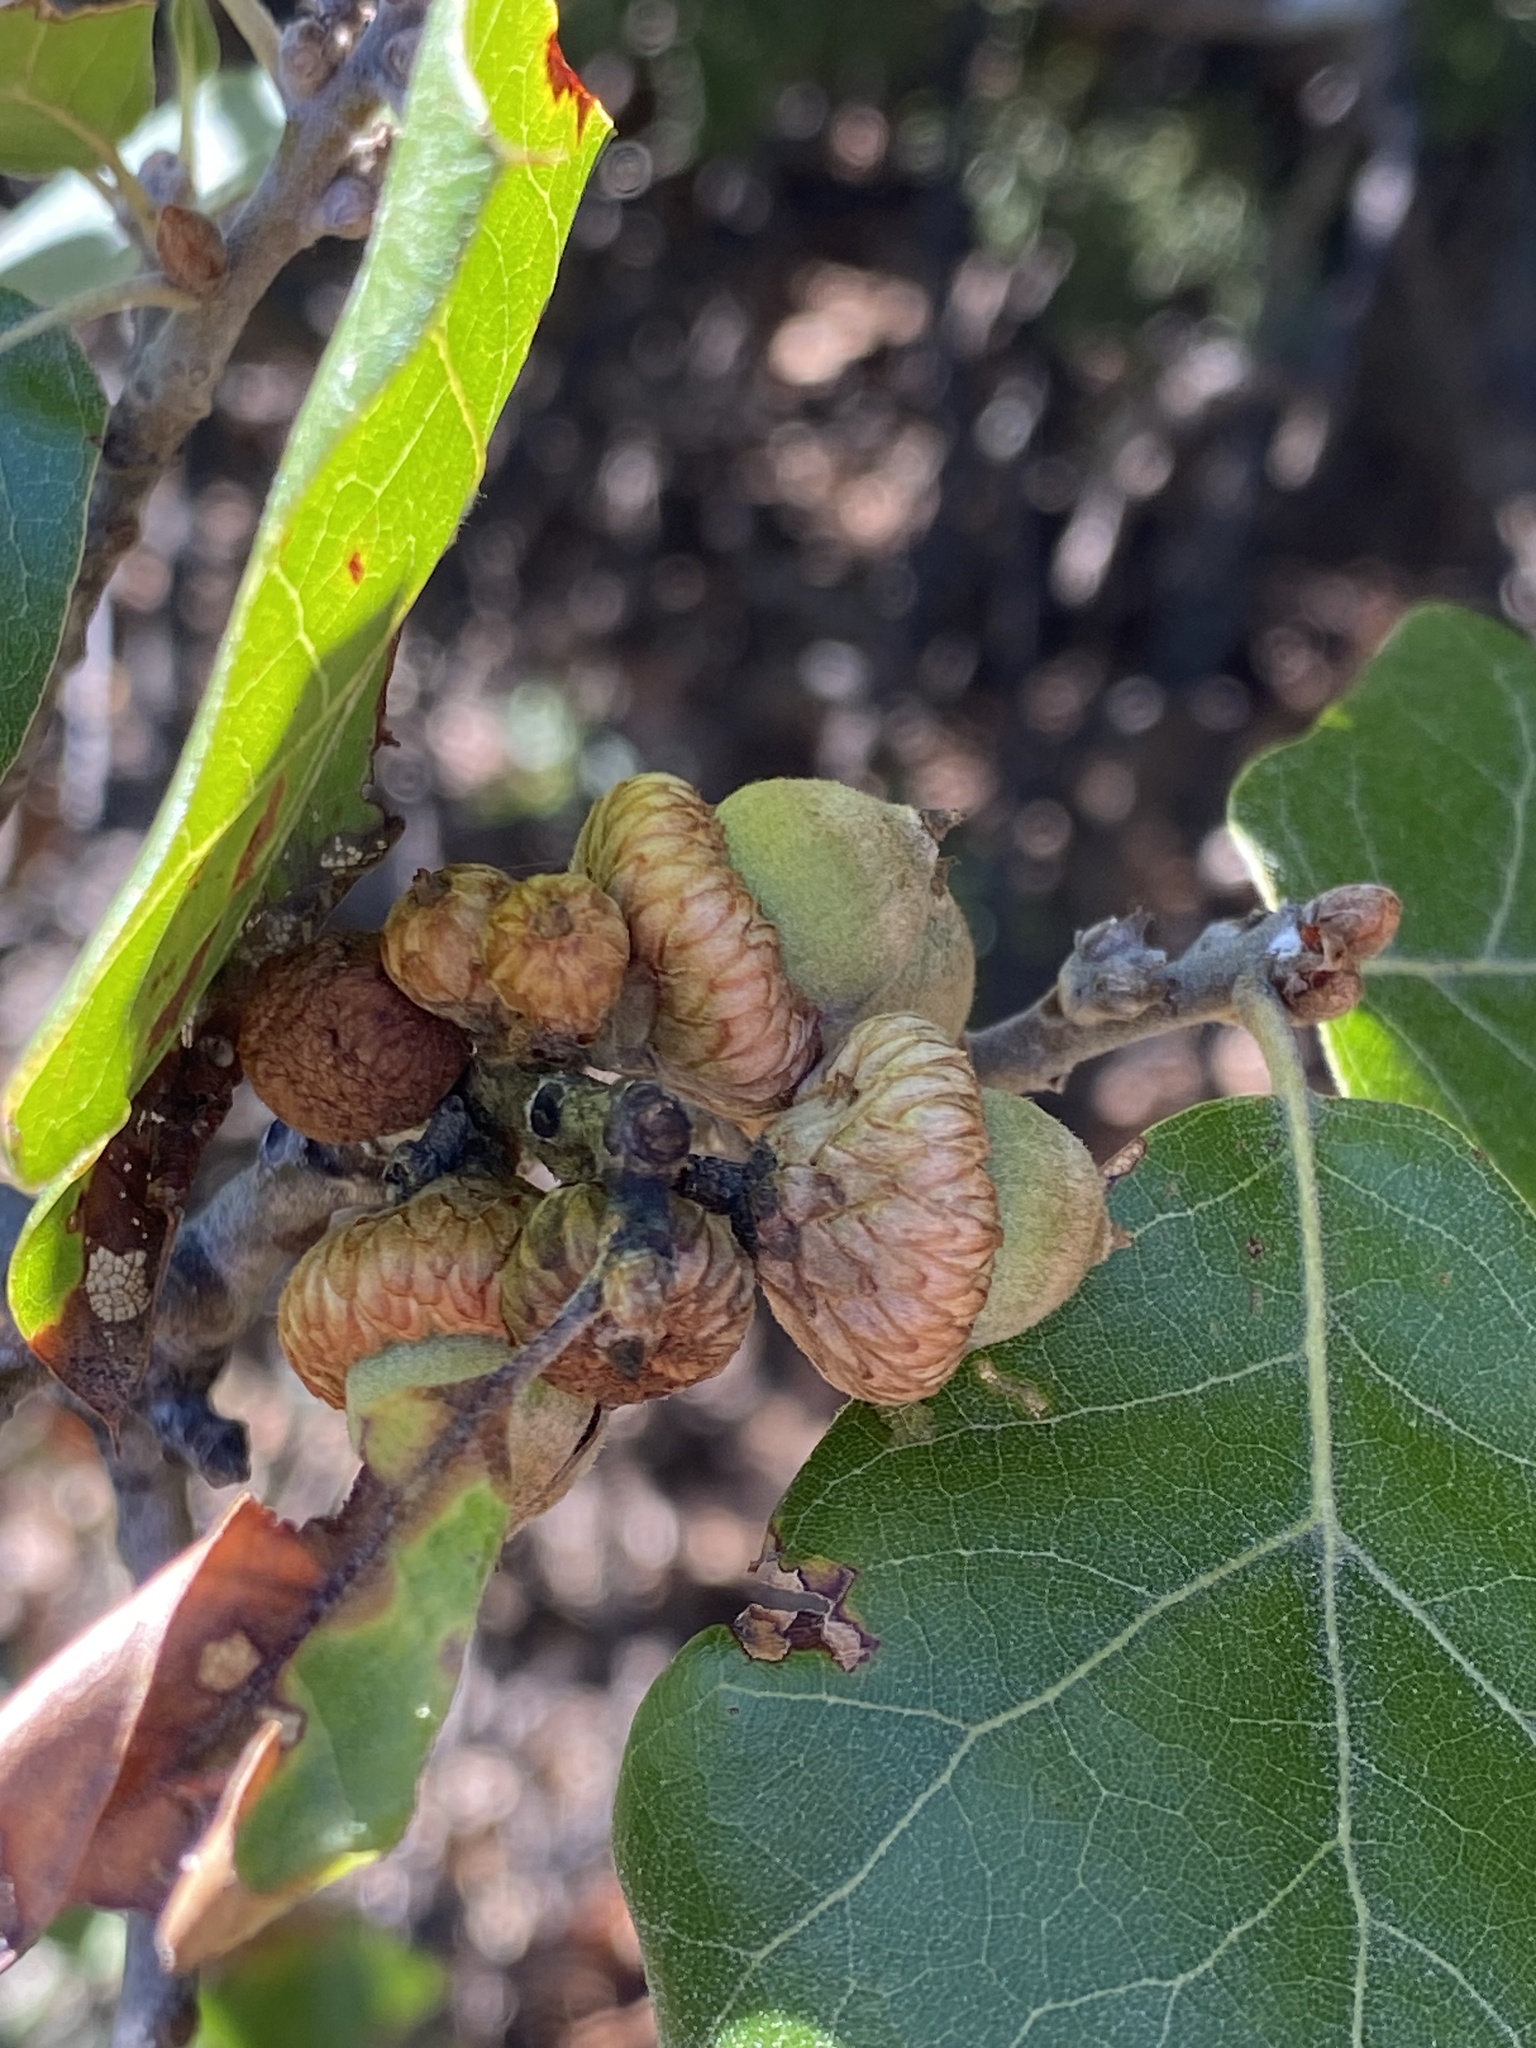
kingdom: Plantae
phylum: Tracheophyta
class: Magnoliopsida
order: Fagales
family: Fagaceae
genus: Quercus
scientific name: Quercus stellata
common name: Post oak
